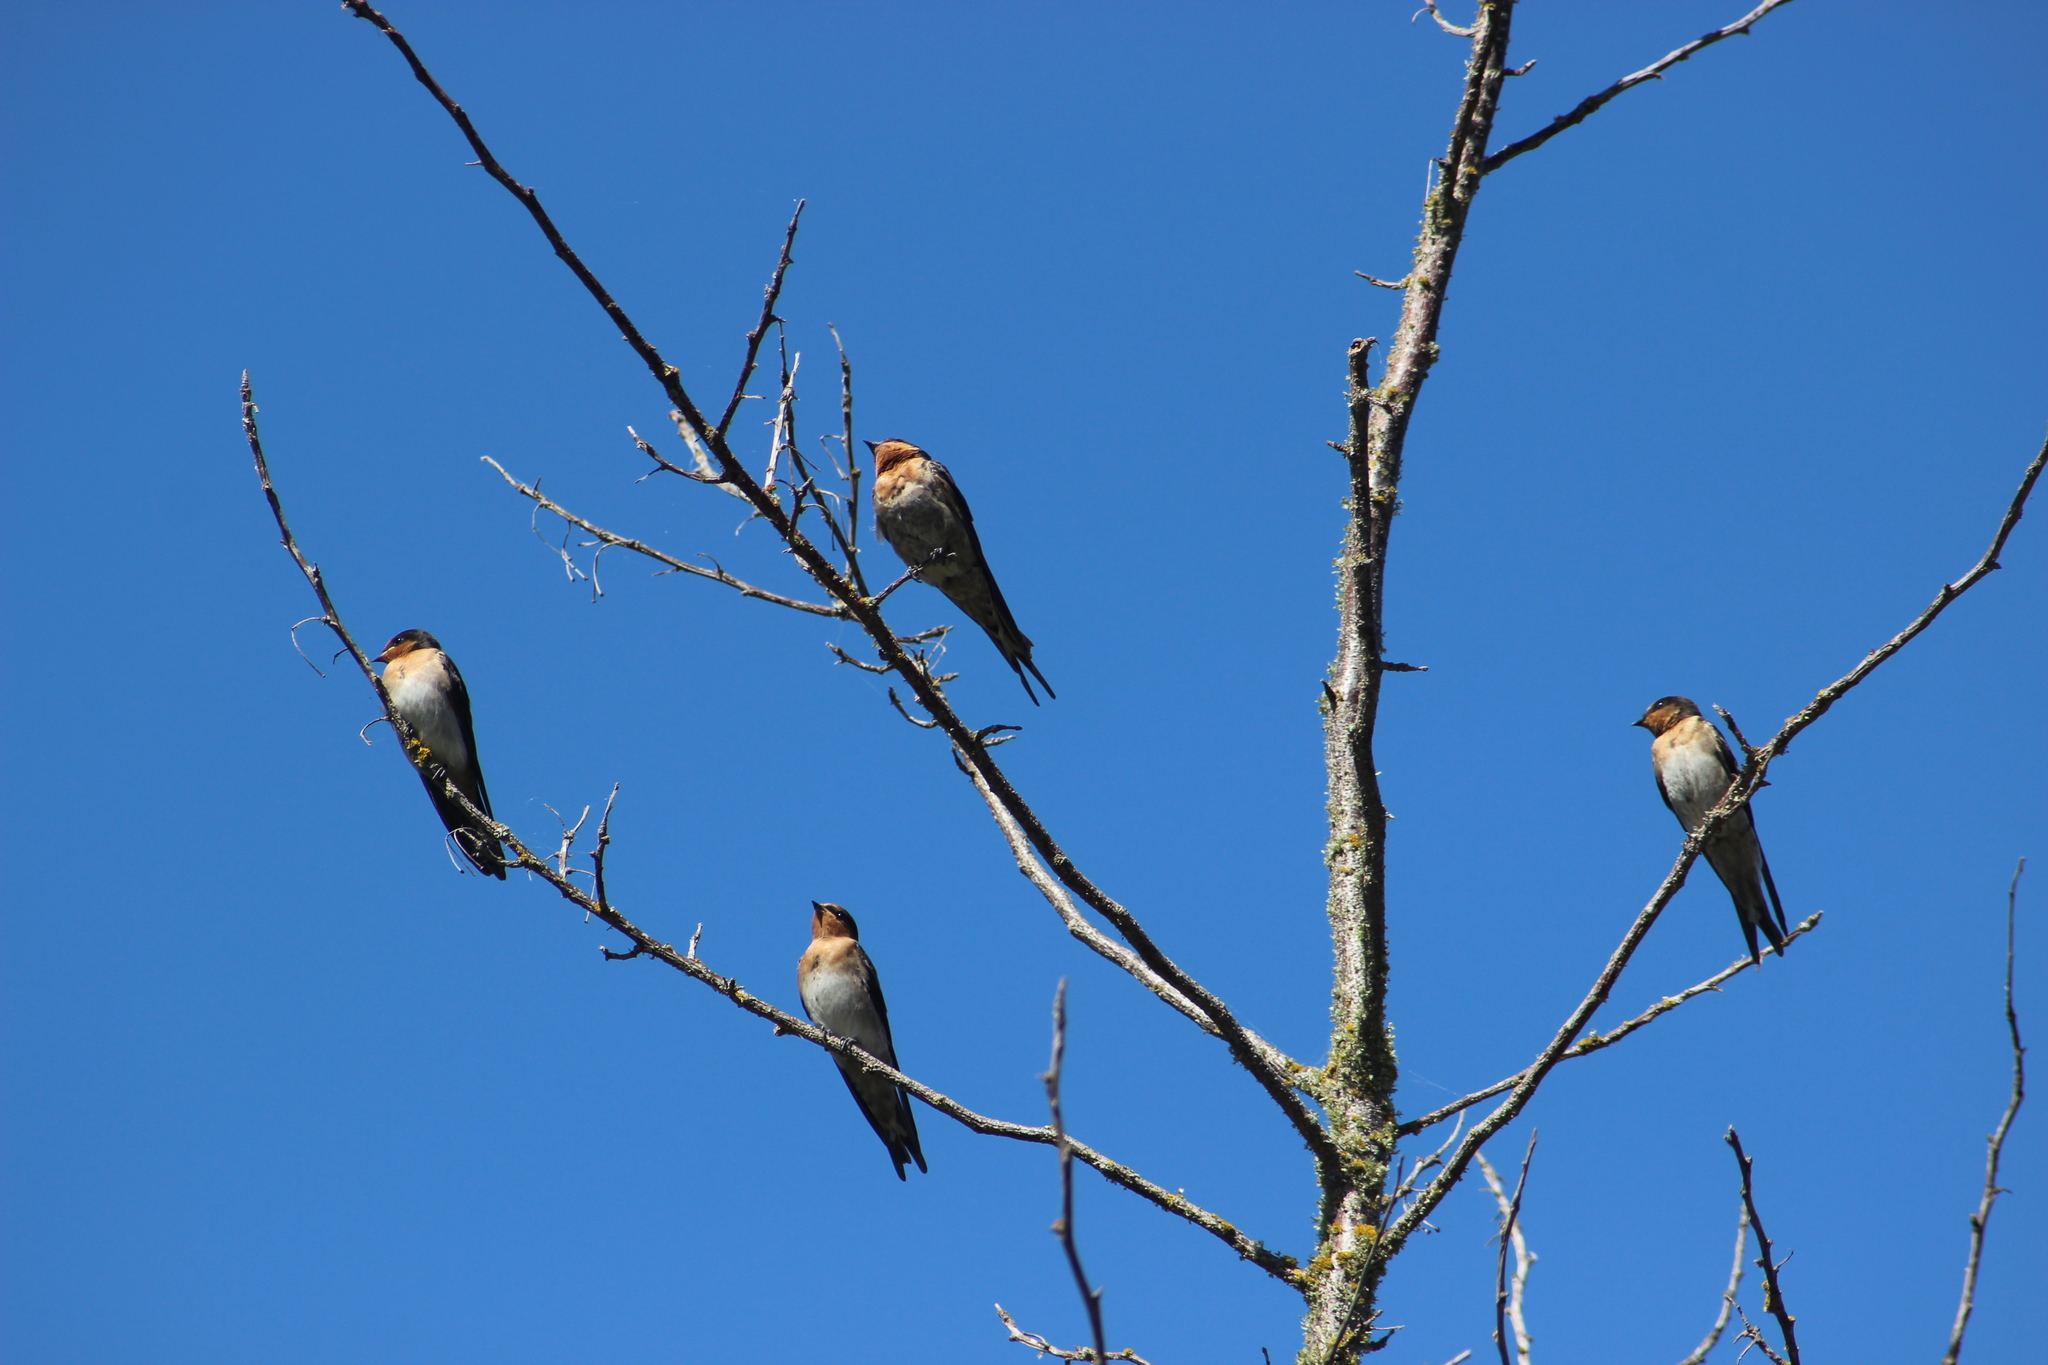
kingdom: Animalia
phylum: Chordata
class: Aves
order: Passeriformes
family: Hirundinidae
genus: Hirundo
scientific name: Hirundo neoxena
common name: Welcome swallow
